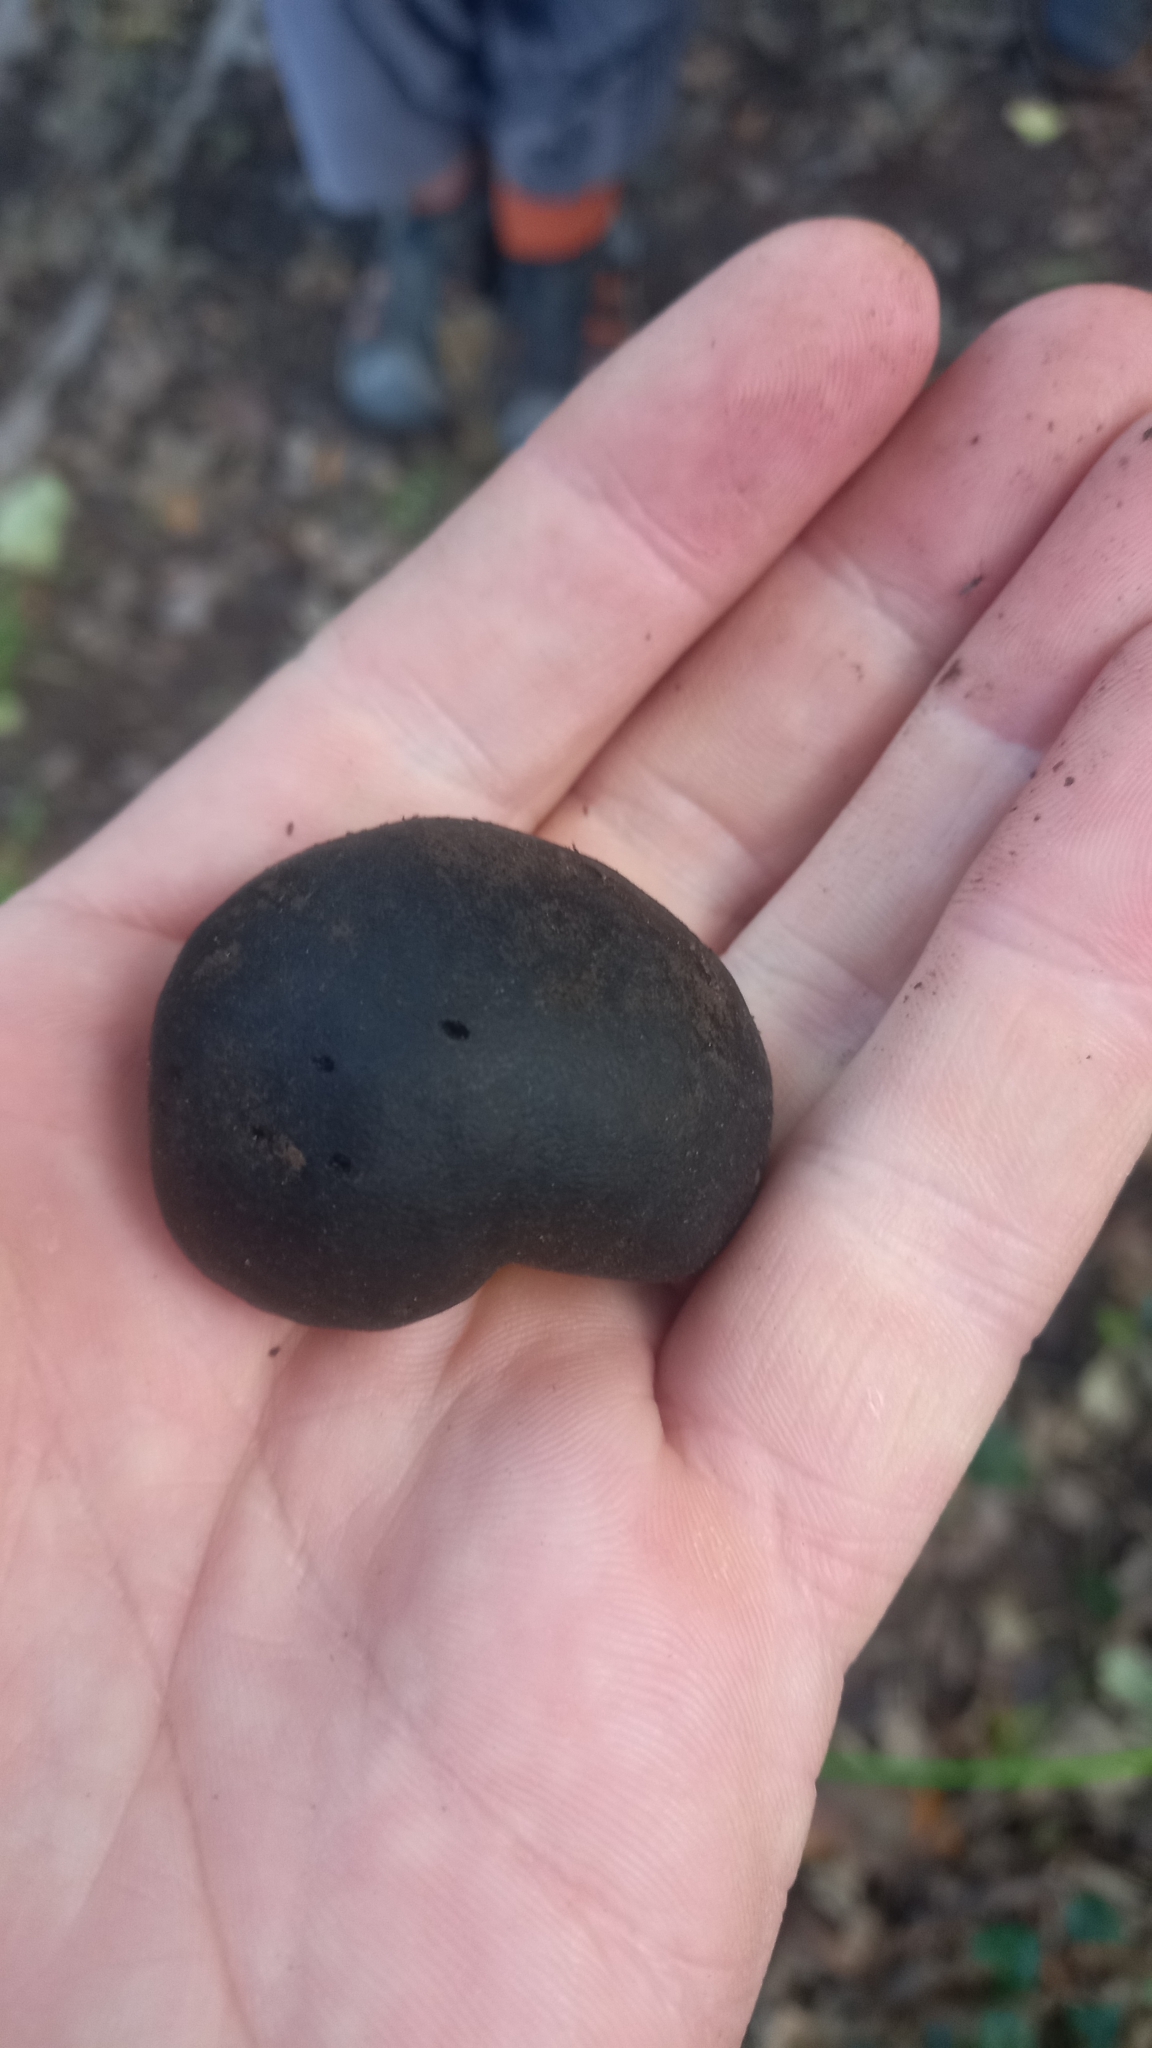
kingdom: Fungi
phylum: Ascomycota
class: Sordariomycetes
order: Xylariales
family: Hypoxylaceae
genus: Daldinia
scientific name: Daldinia concentrica
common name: Cramp balls
